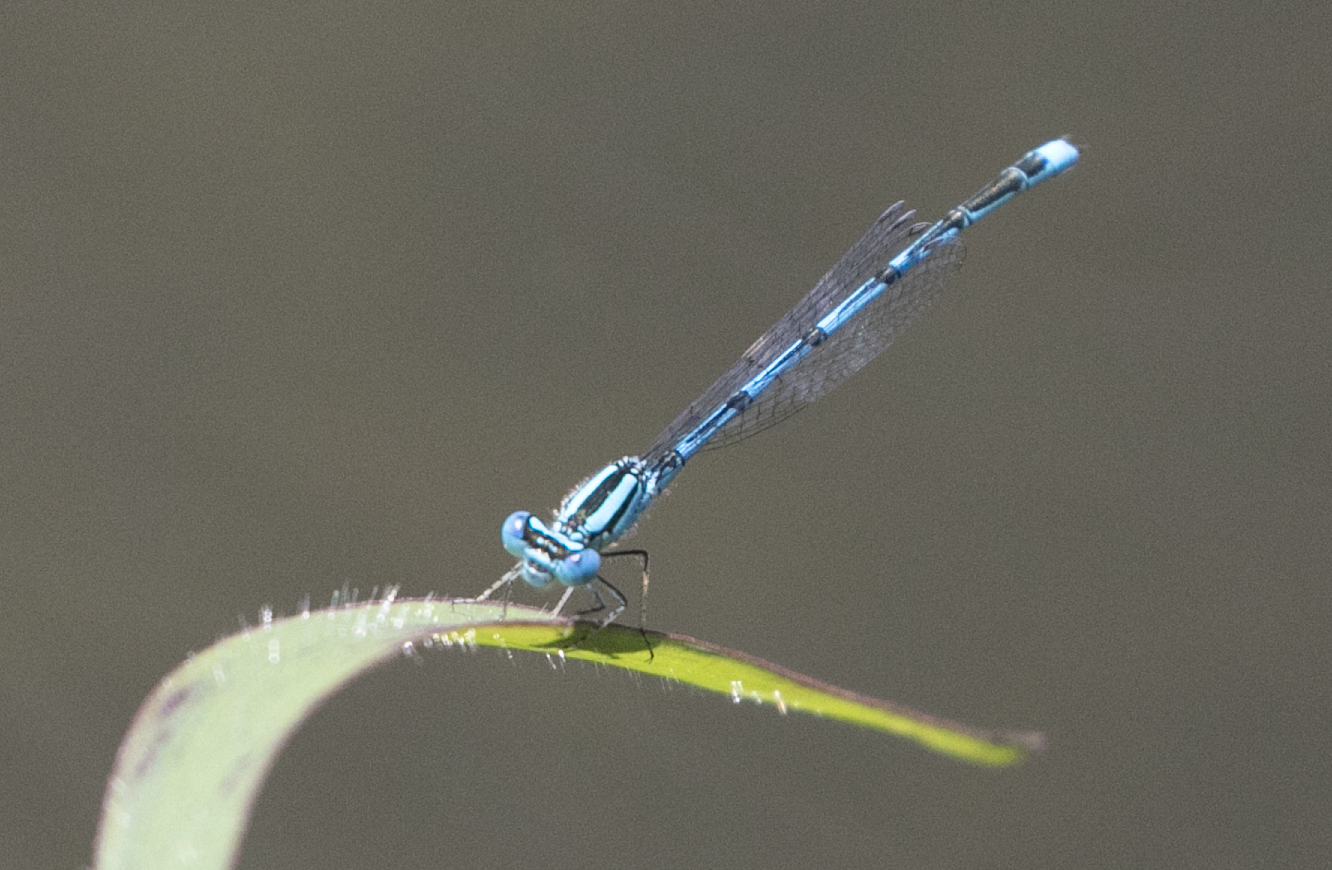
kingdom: Animalia
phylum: Arthropoda
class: Insecta
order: Odonata
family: Coenagrionidae
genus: Erythromma
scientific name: Erythromma lindenii
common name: Blue-eye
